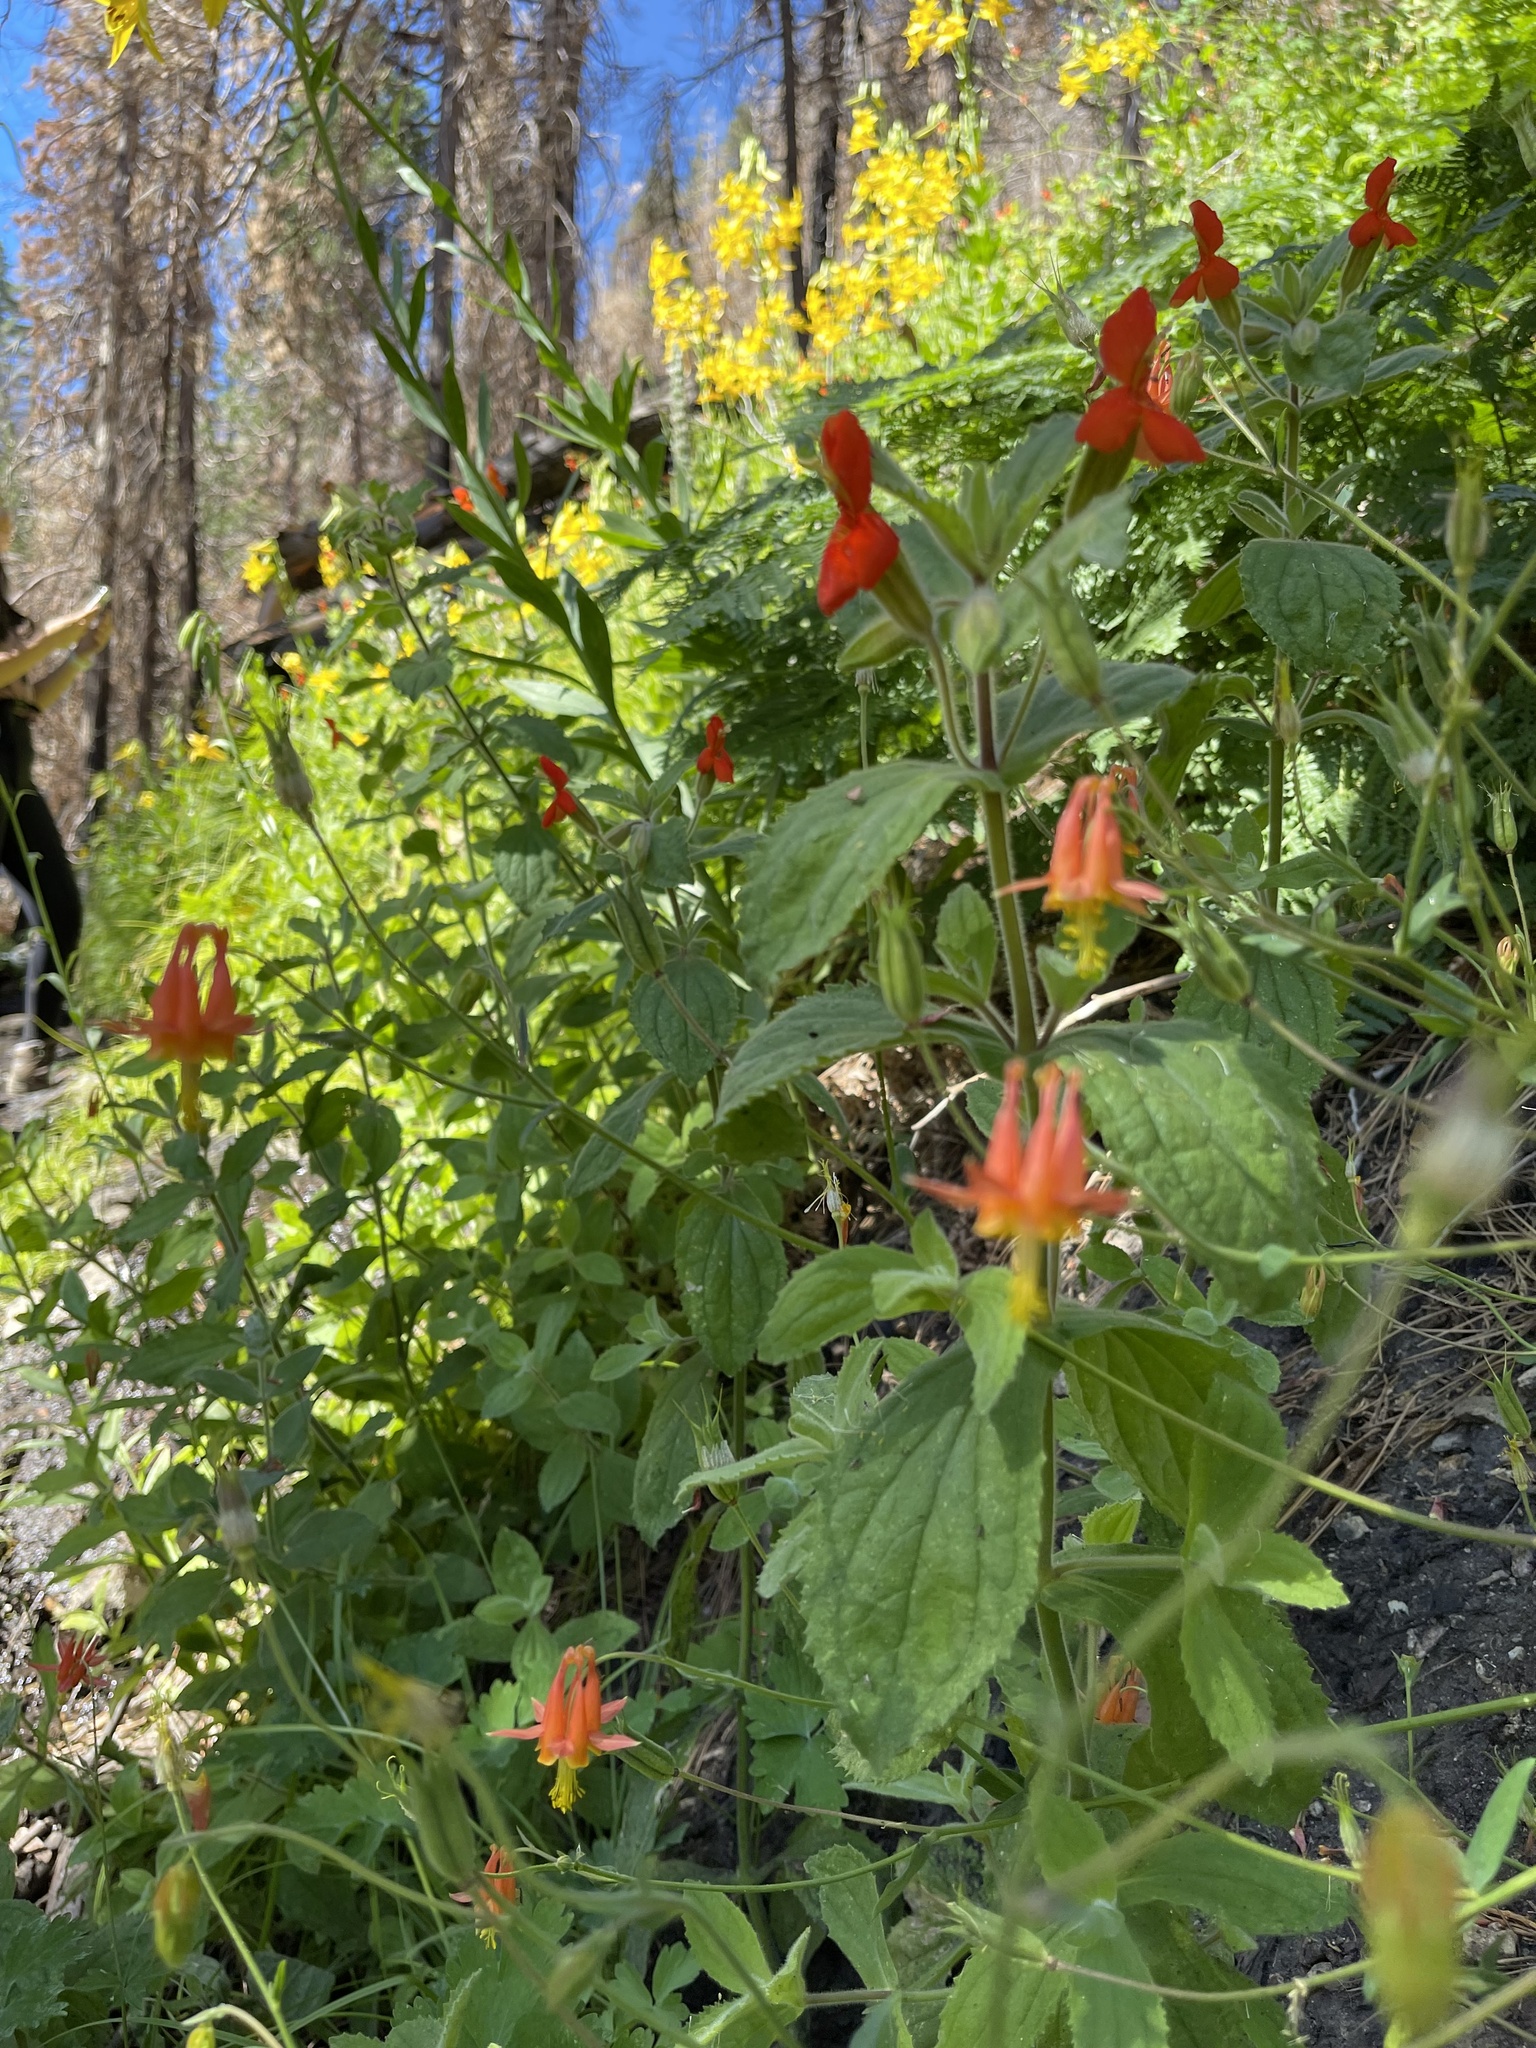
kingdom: Plantae
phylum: Tracheophyta
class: Magnoliopsida
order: Ranunculales
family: Ranunculaceae
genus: Aquilegia
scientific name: Aquilegia formosa
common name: Sitka columbine
